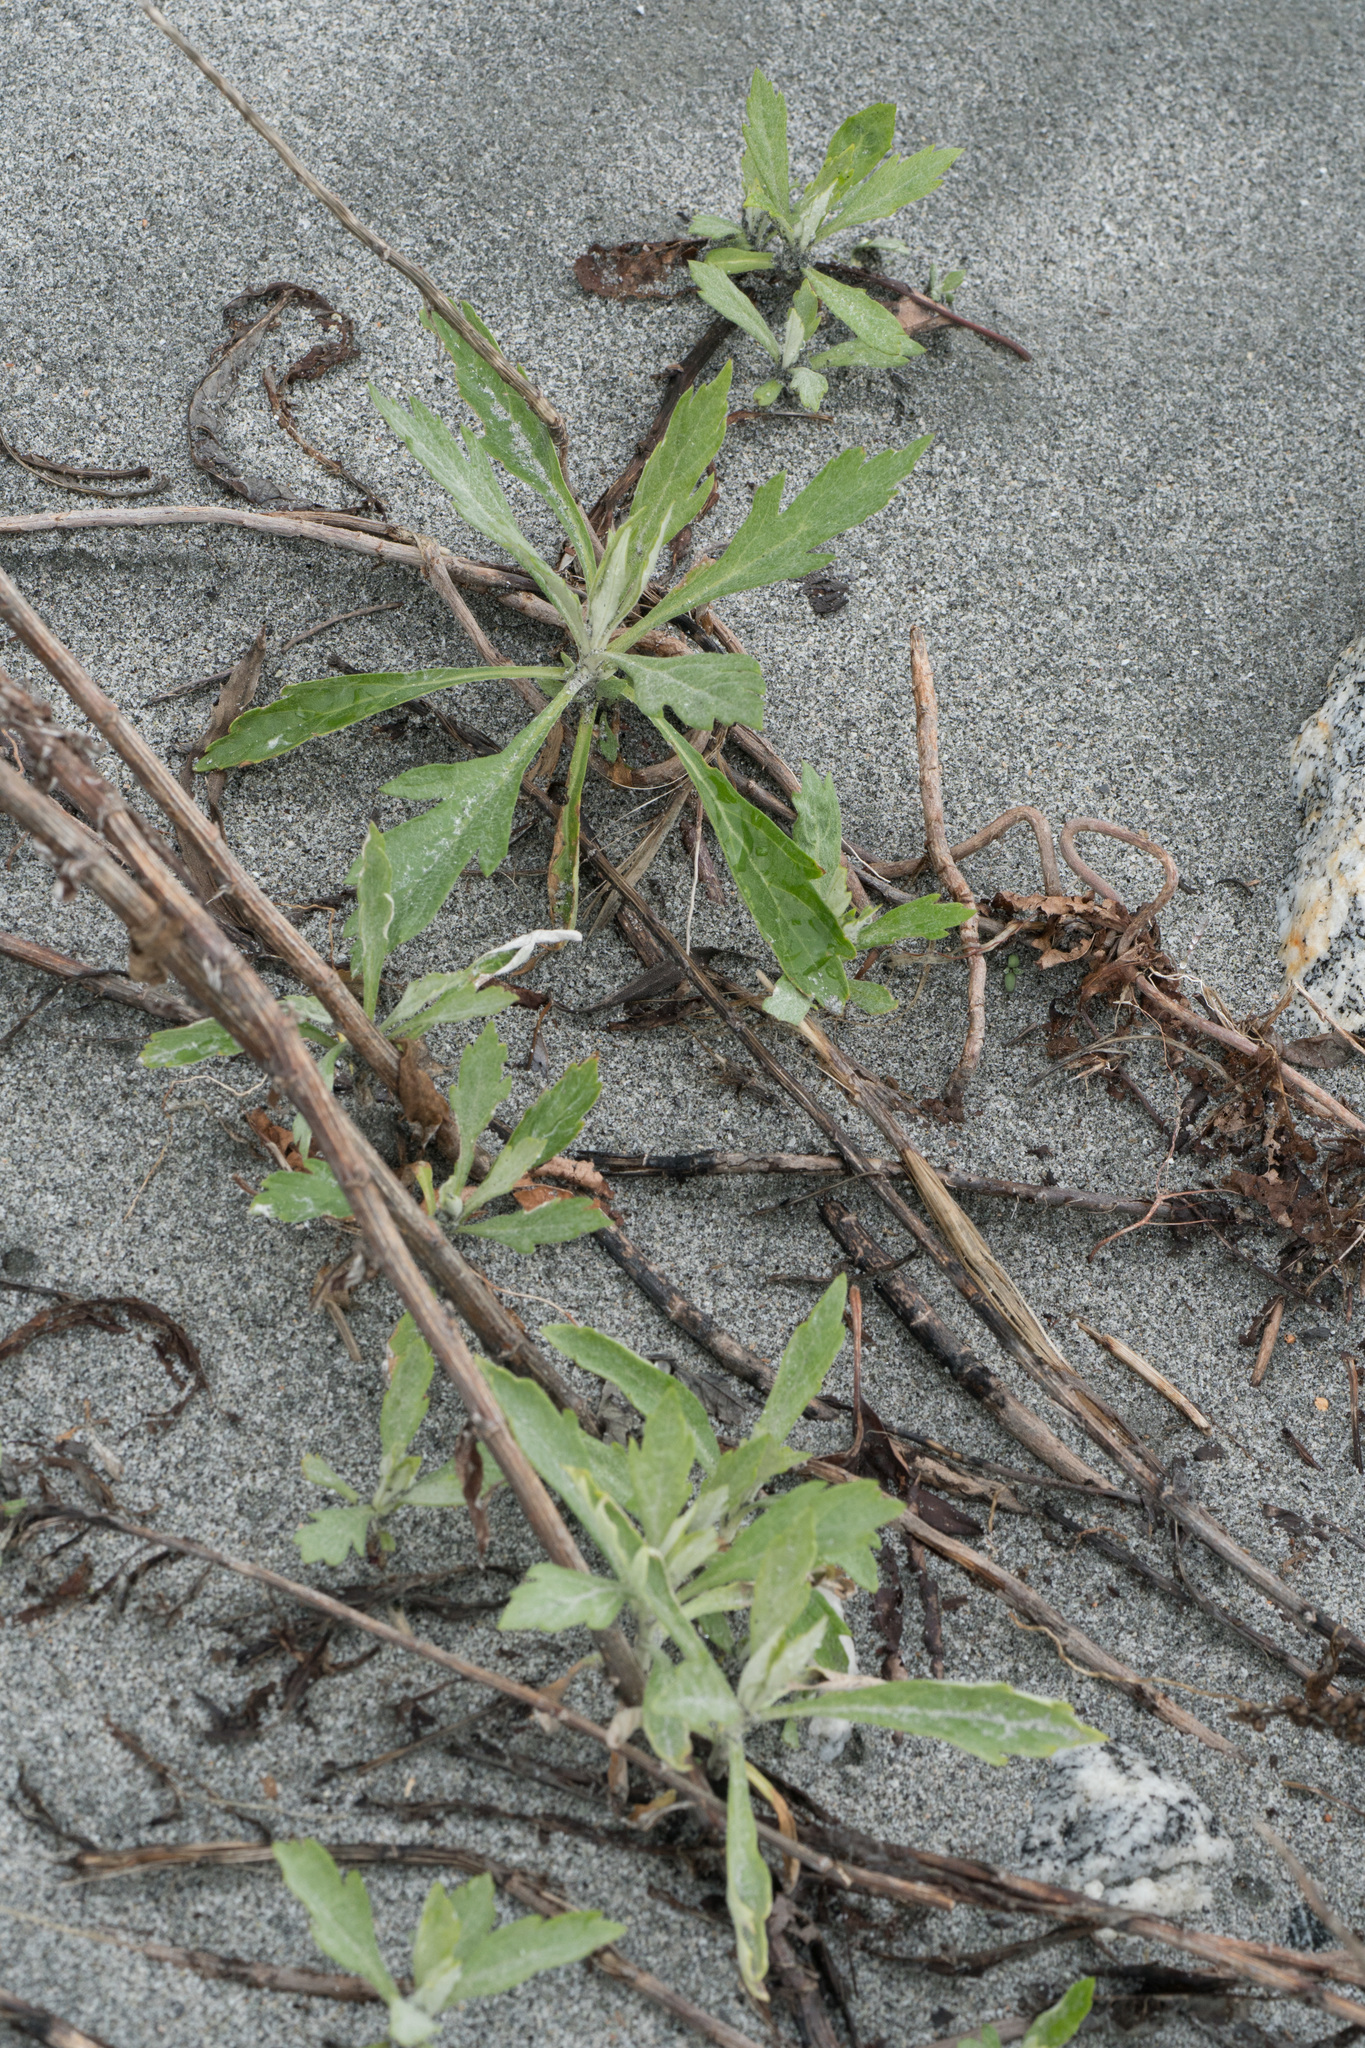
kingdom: Plantae
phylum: Tracheophyta
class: Magnoliopsida
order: Asterales
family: Asteraceae
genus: Artemisia
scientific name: Artemisia douglasiana
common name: Northwest mugwort
